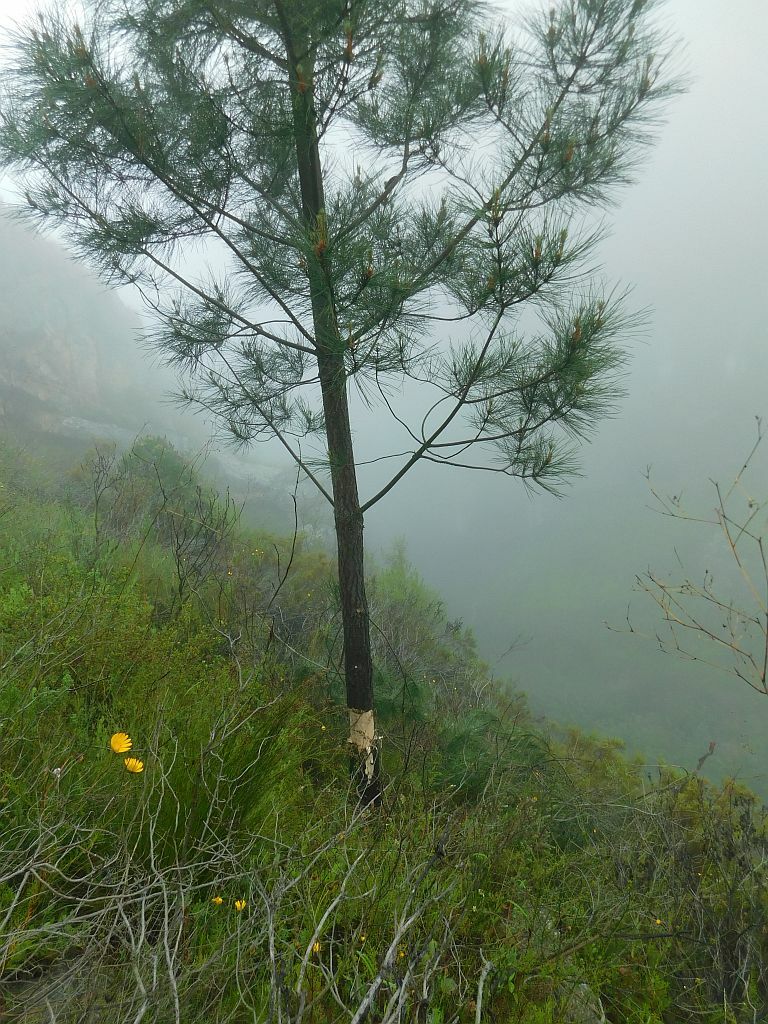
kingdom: Plantae
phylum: Tracheophyta
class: Pinopsida
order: Pinales
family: Pinaceae
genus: Pinus
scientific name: Pinus pinaster
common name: Maritime pine
